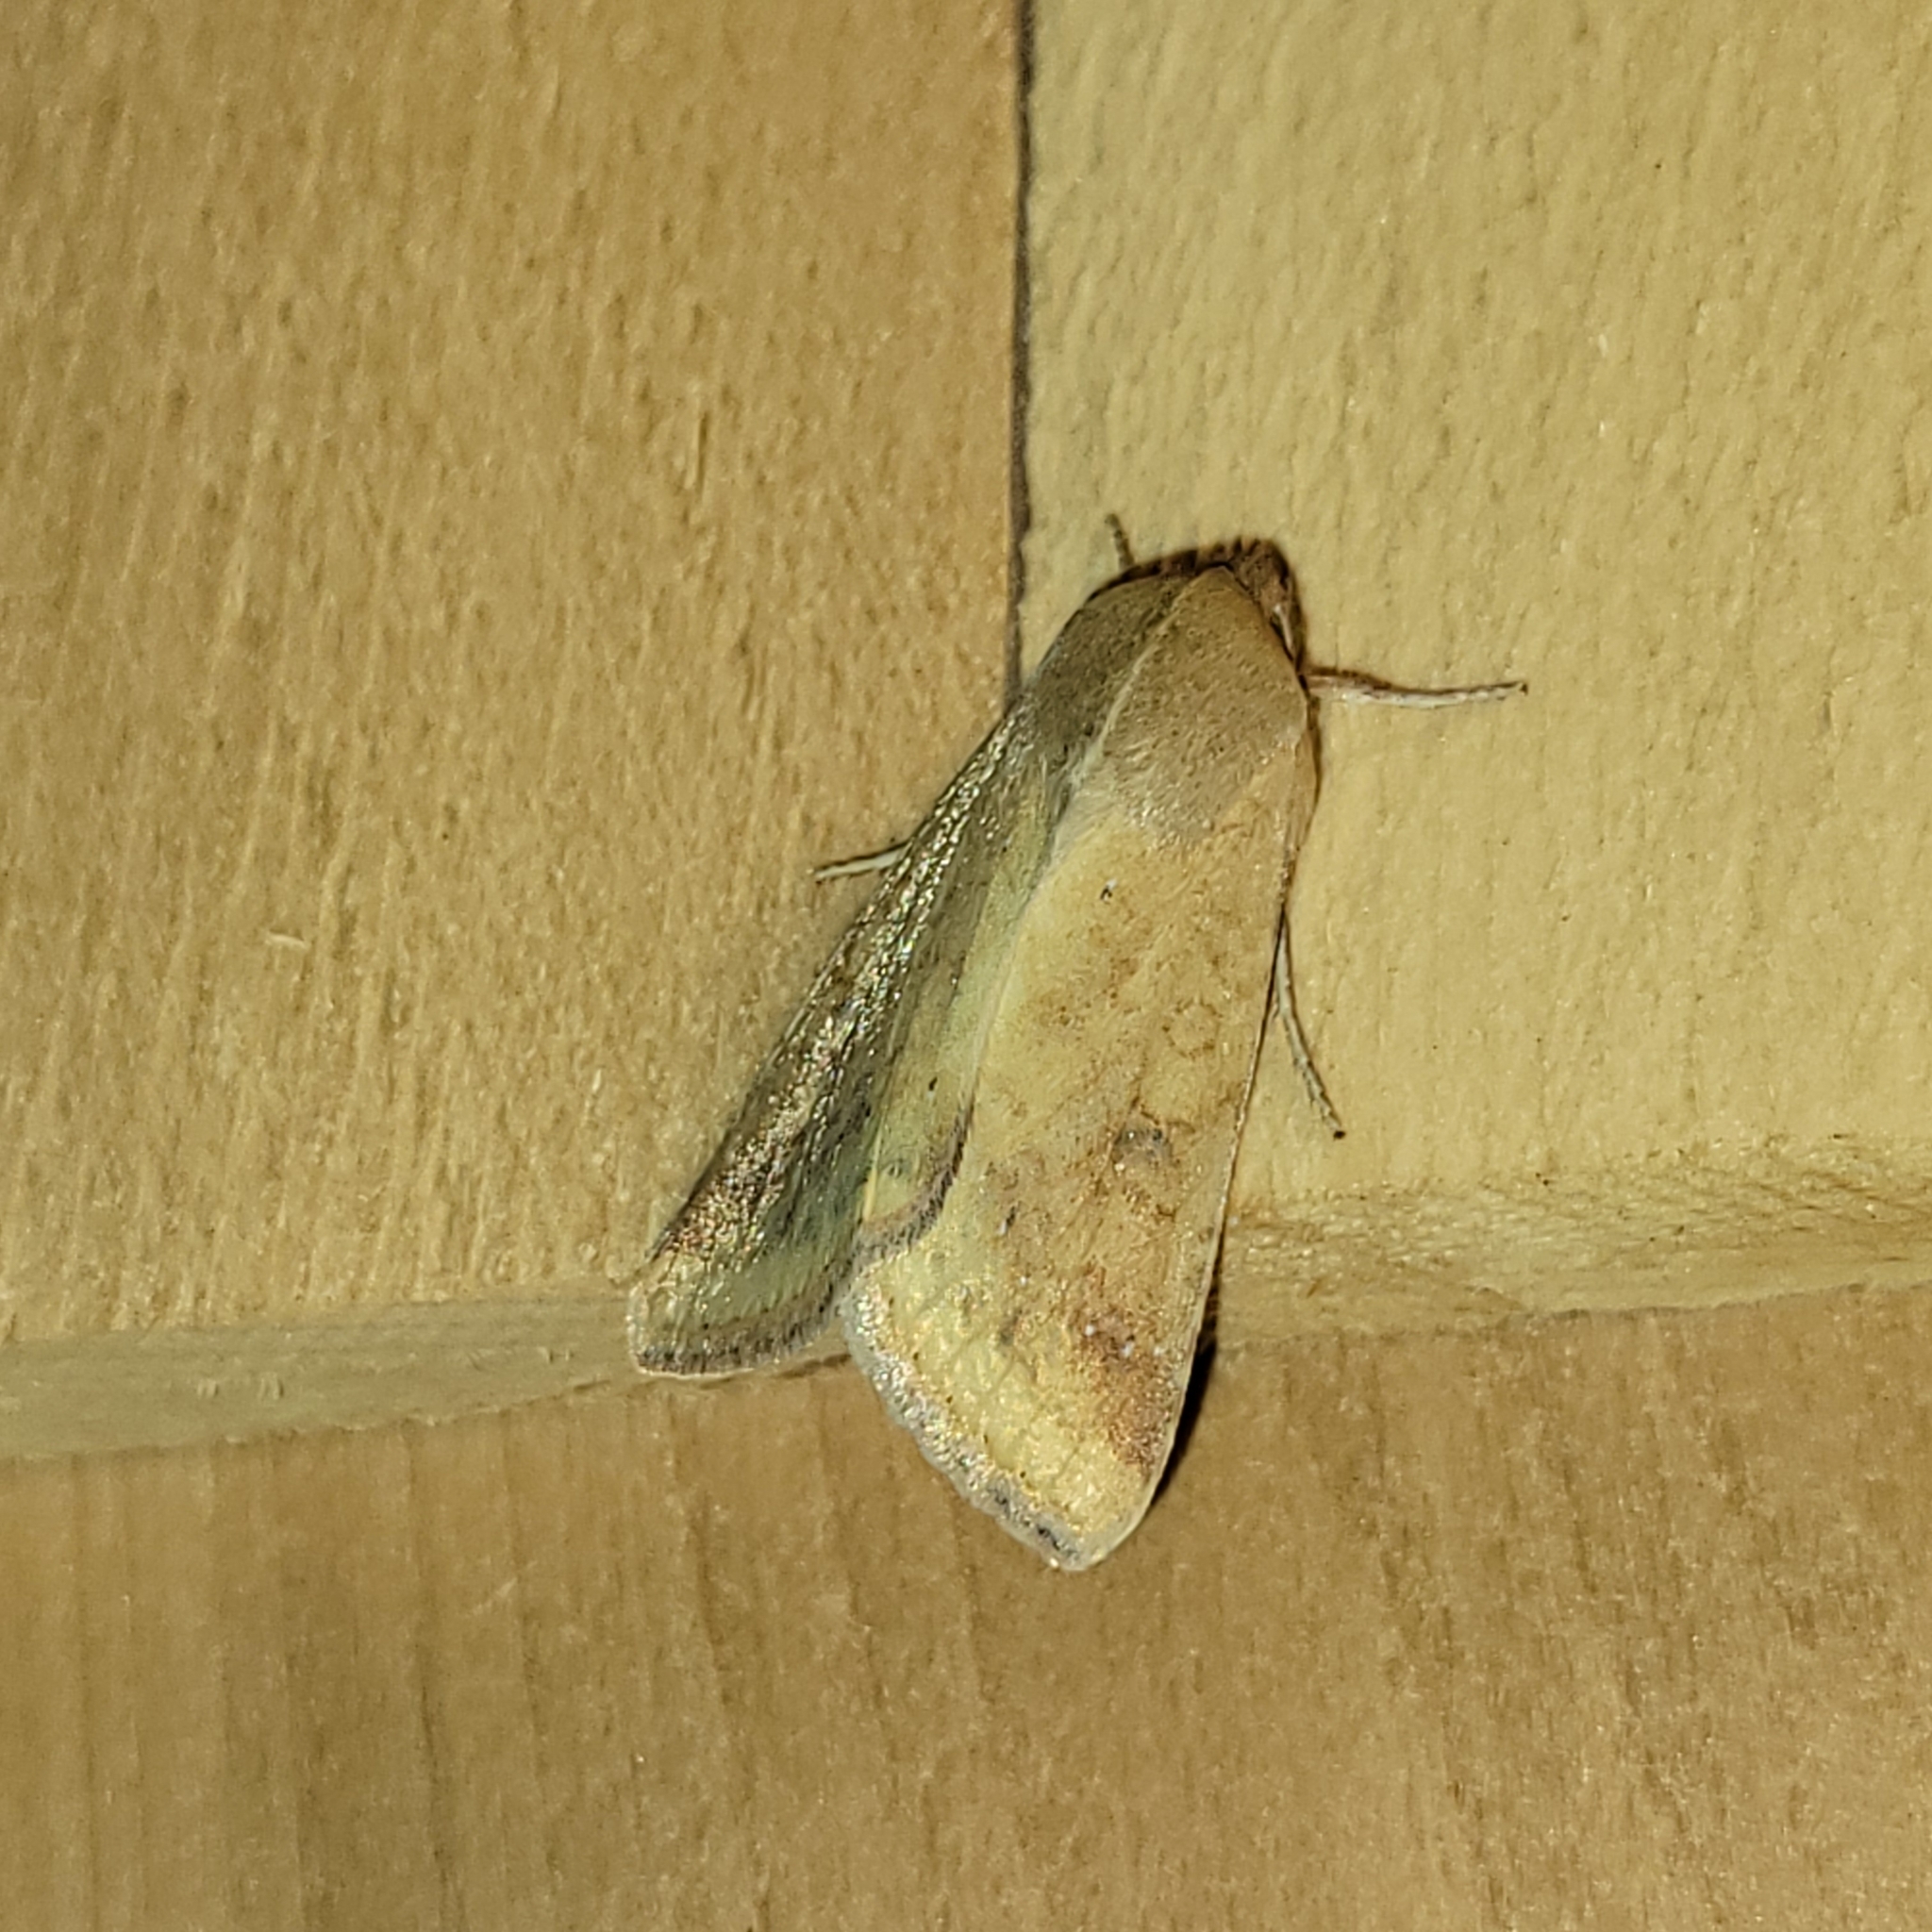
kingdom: Animalia
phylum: Arthropoda
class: Insecta
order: Lepidoptera
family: Noctuidae
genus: Helicoverpa
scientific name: Helicoverpa zea
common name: Bollworm
